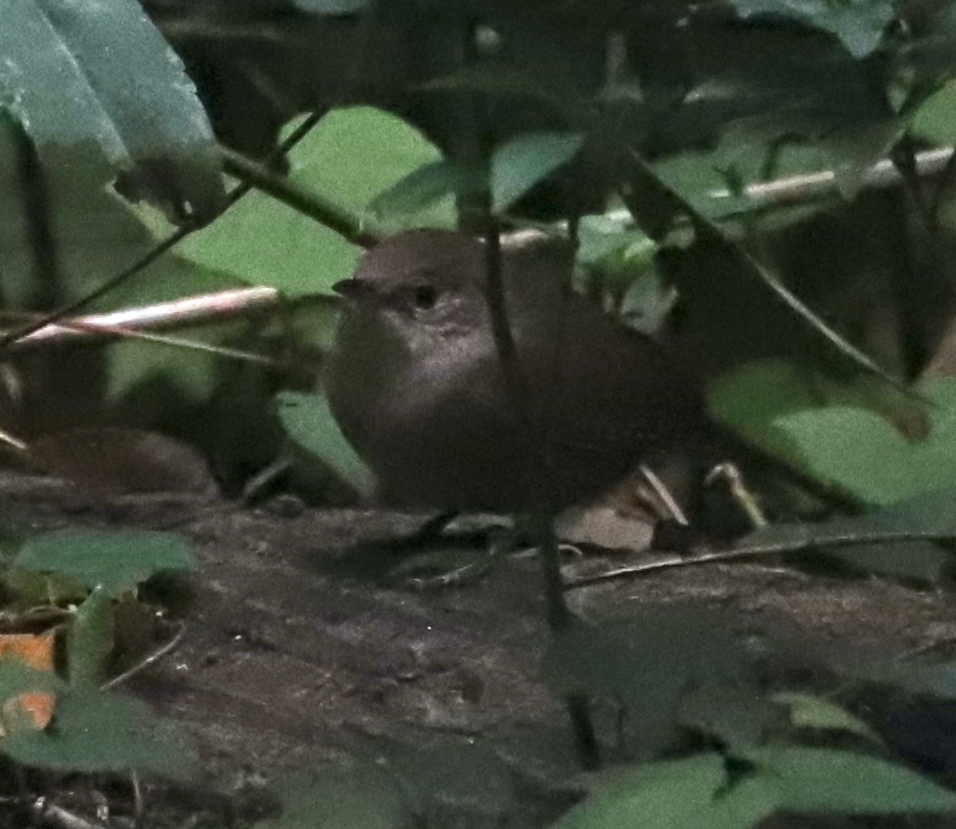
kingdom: Animalia
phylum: Chordata
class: Aves
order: Passeriformes
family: Troglodytidae
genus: Troglodytes
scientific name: Troglodytes aedon
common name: House wren
